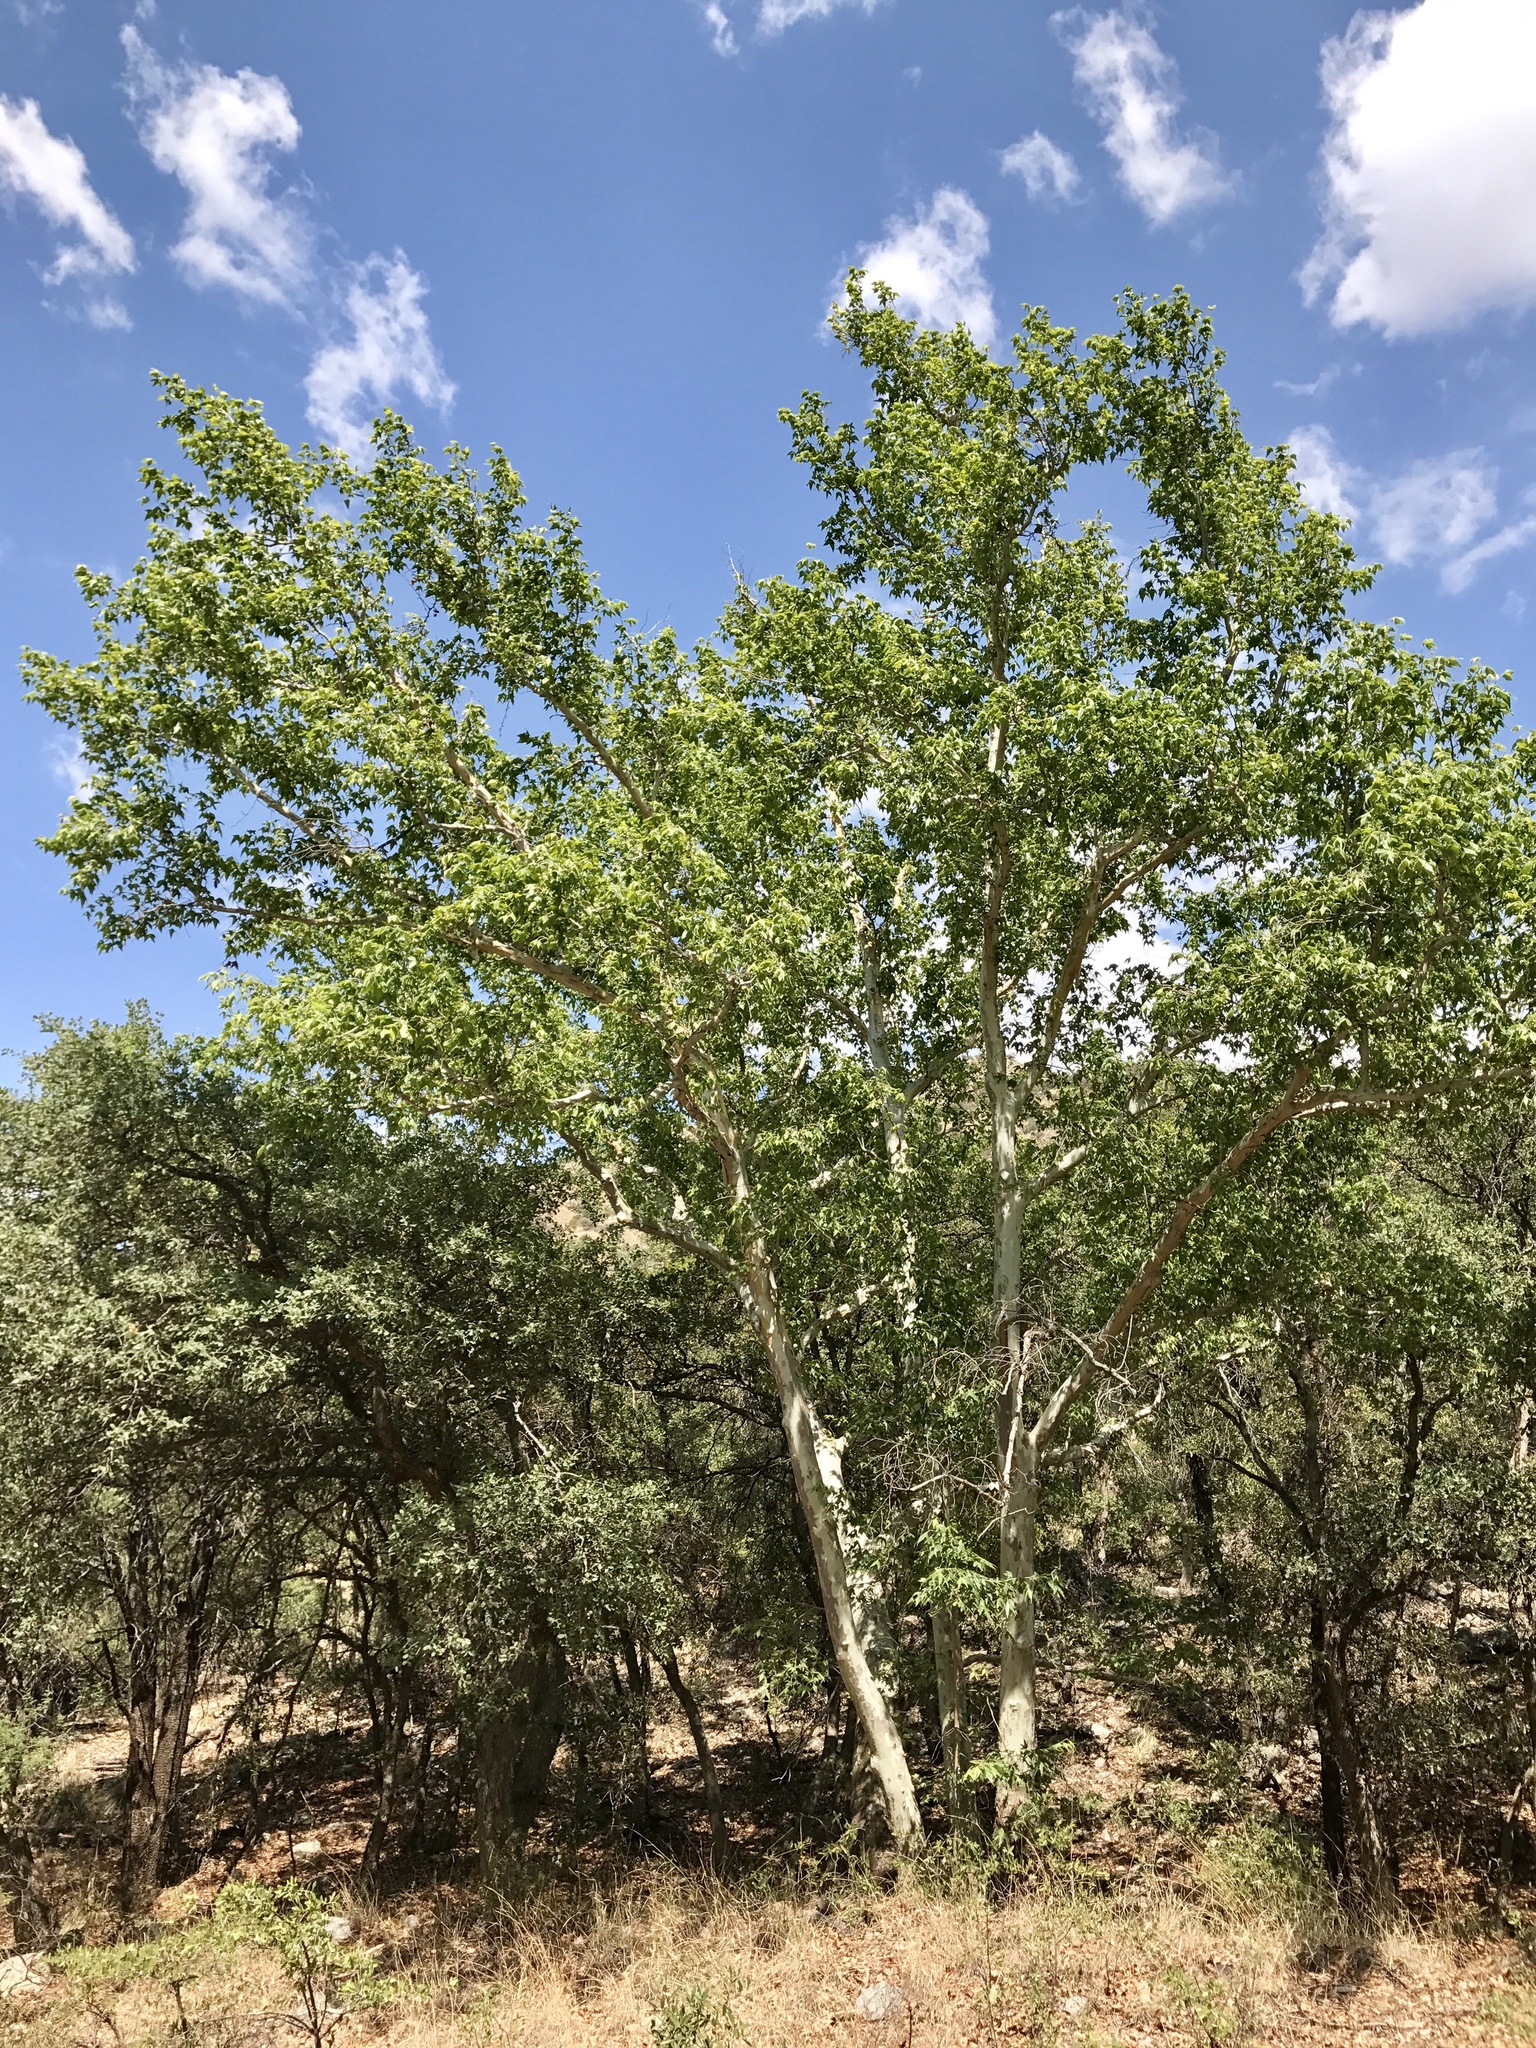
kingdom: Plantae
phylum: Tracheophyta
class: Magnoliopsida
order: Proteales
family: Platanaceae
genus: Platanus
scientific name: Platanus wrightii
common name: Arizona sycamore
